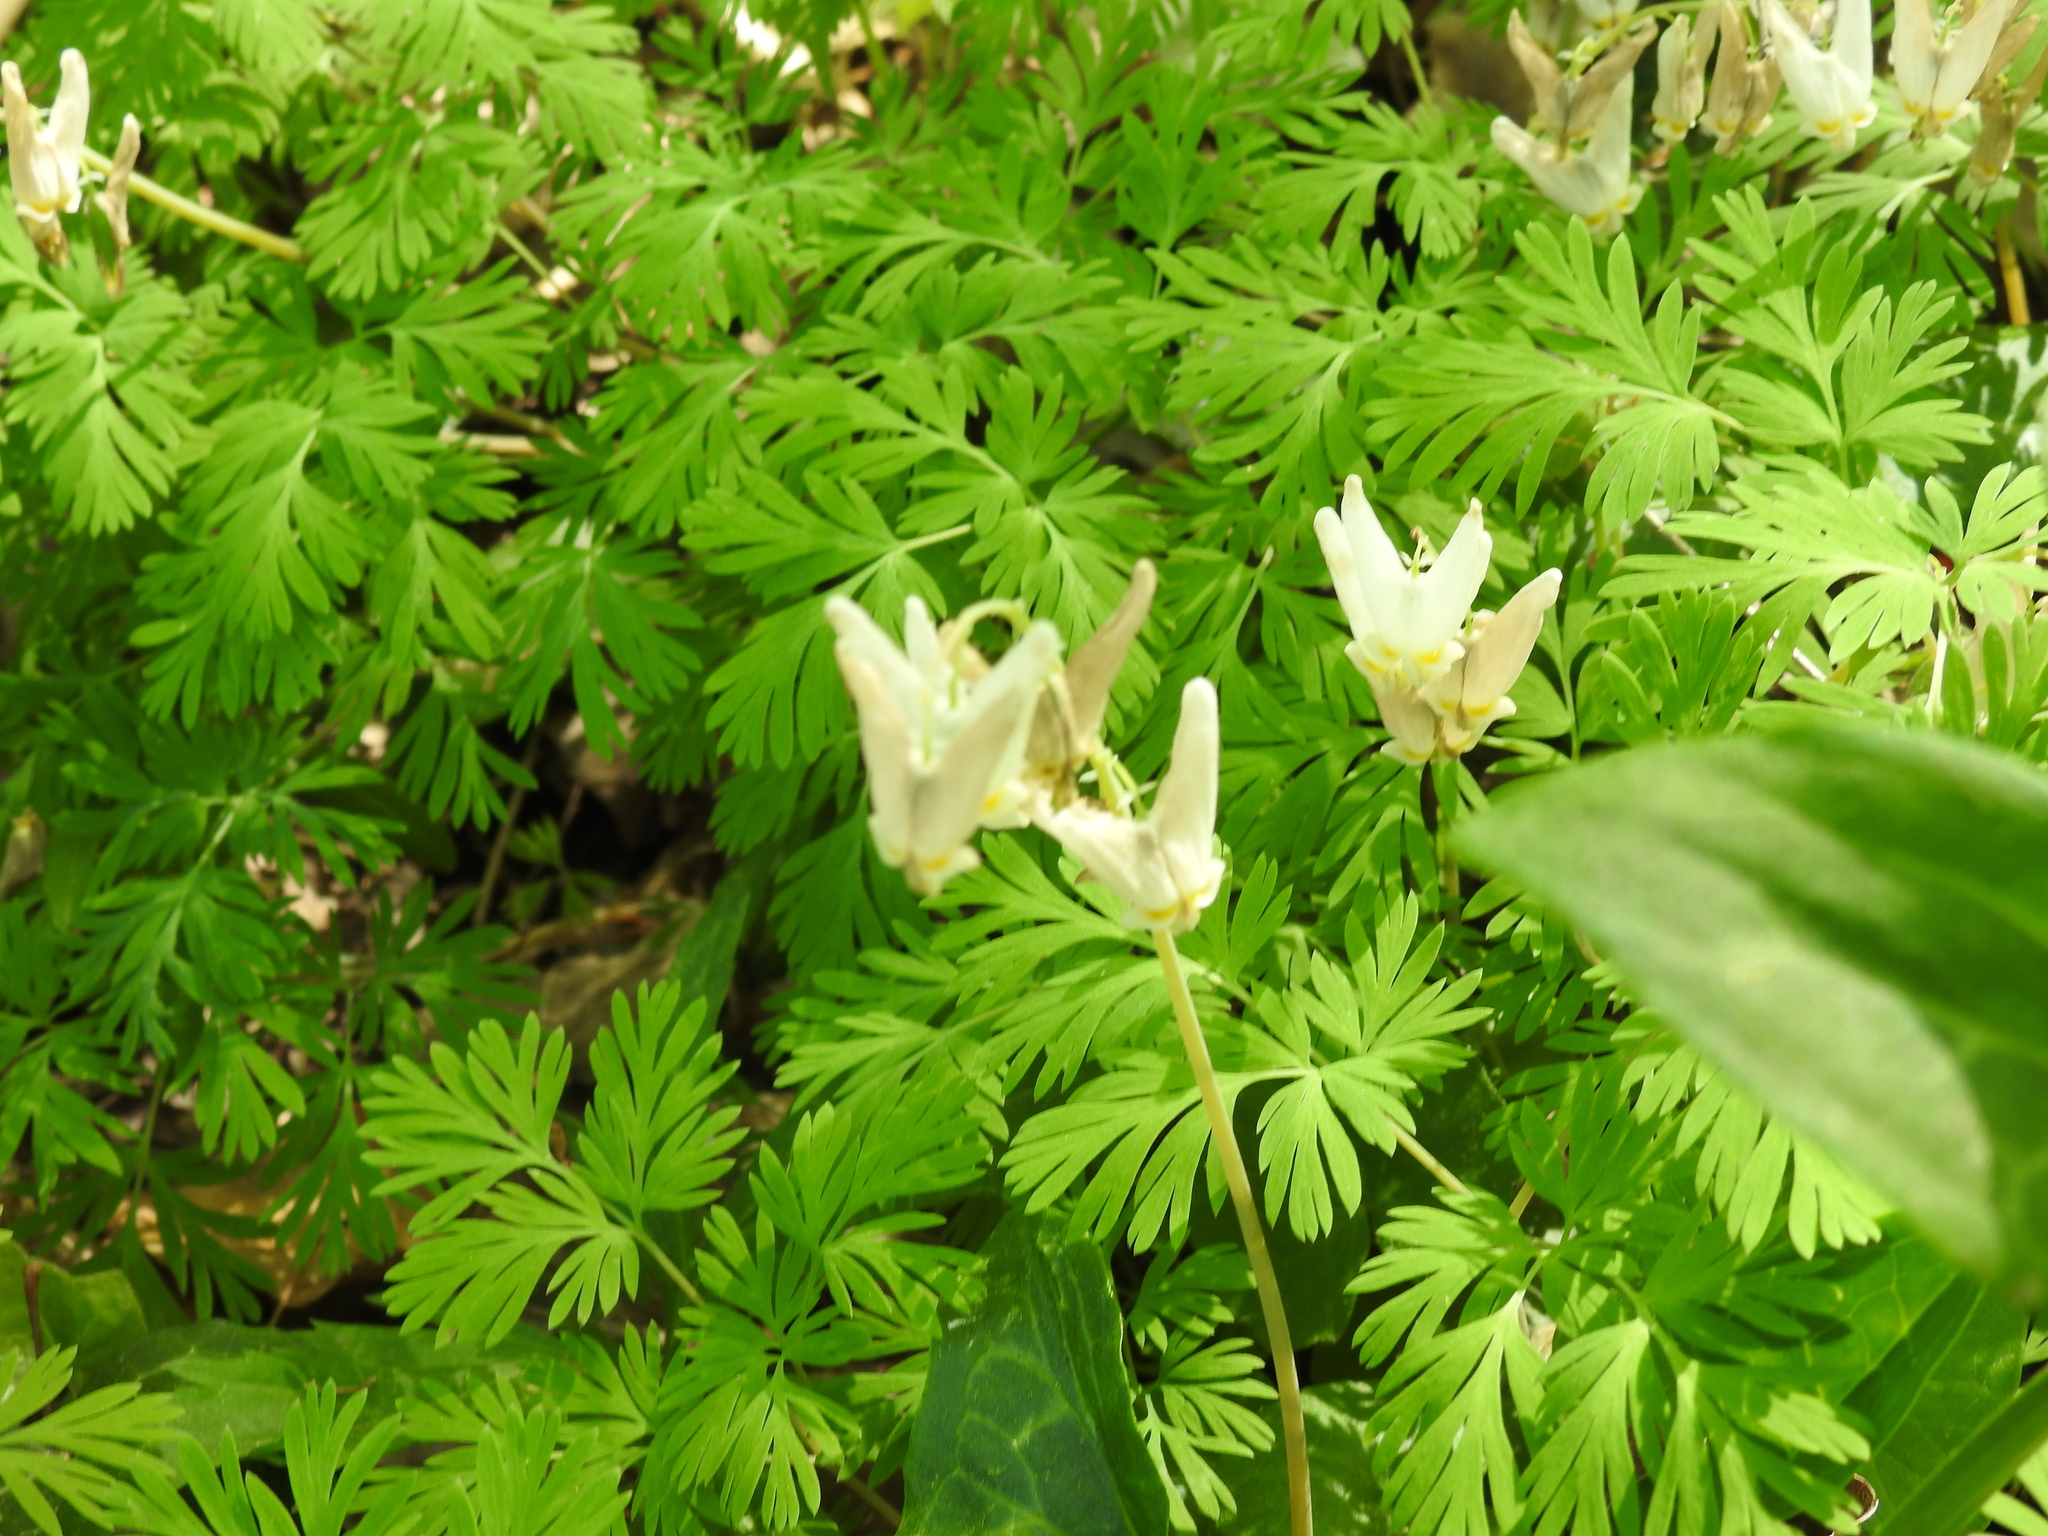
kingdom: Plantae
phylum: Tracheophyta
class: Magnoliopsida
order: Ranunculales
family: Papaveraceae
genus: Dicentra
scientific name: Dicentra cucullaria
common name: Dutchman's breeches
